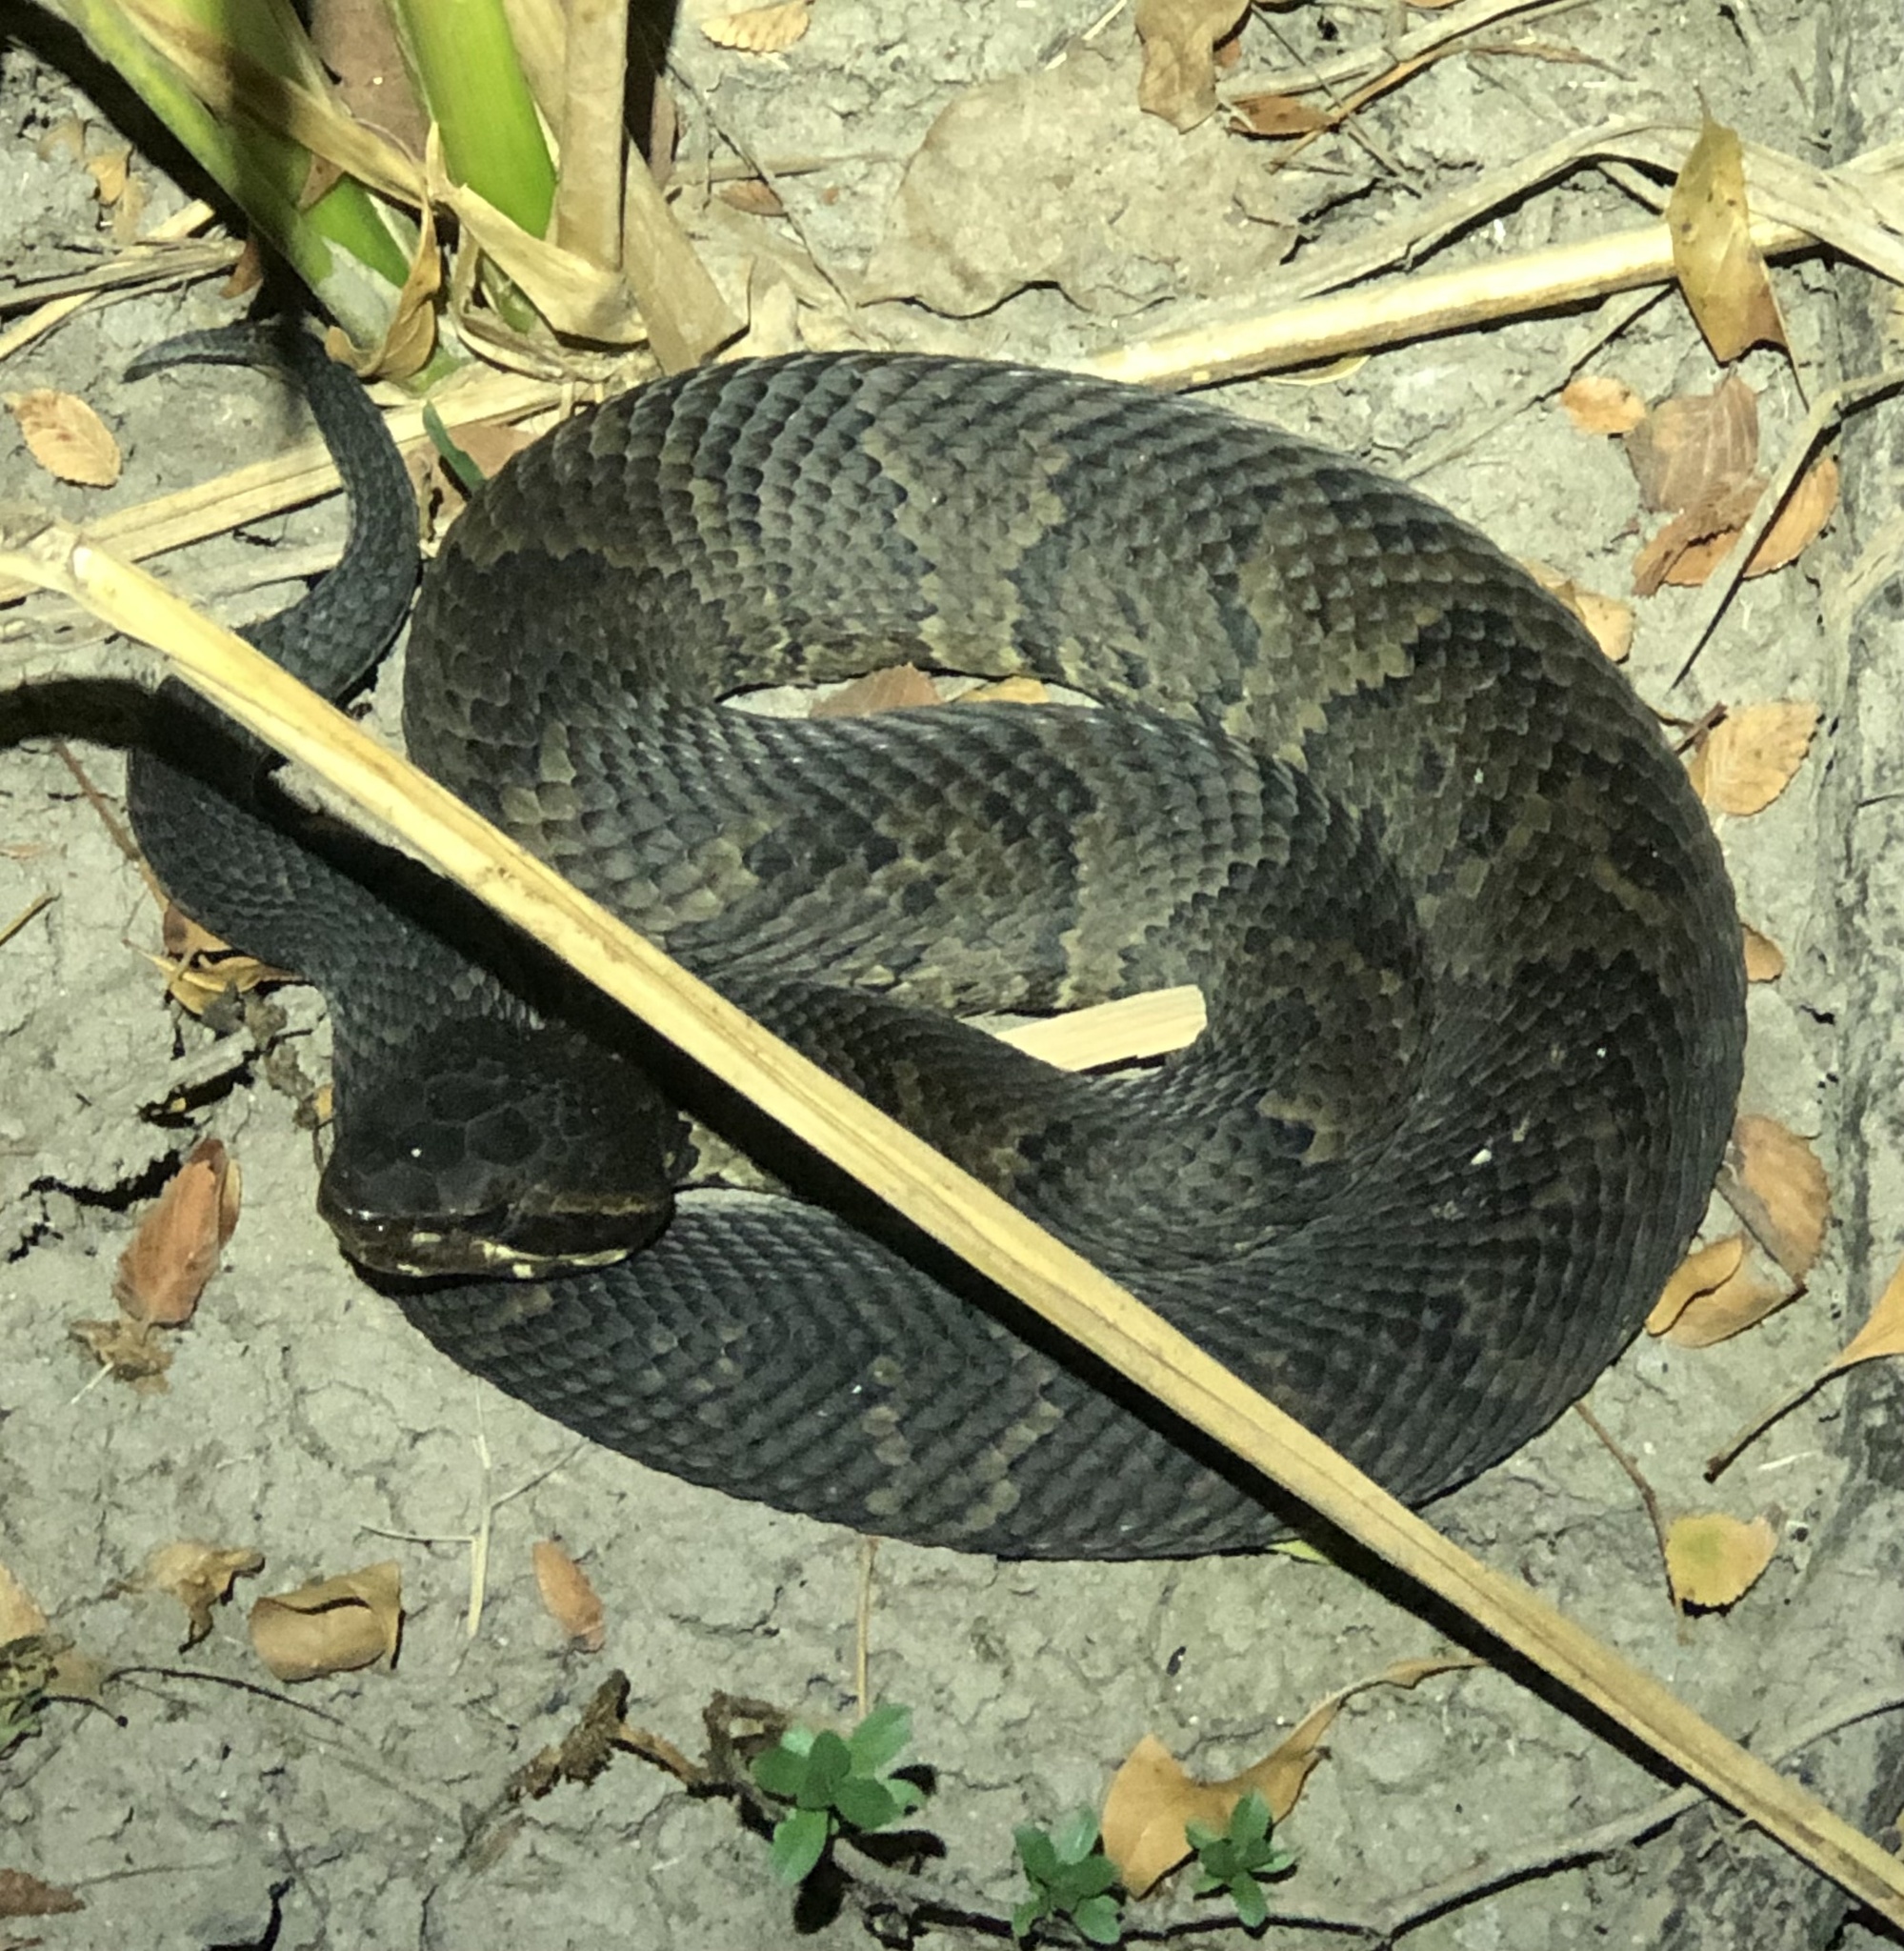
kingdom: Animalia
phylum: Chordata
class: Squamata
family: Viperidae
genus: Agkistrodon
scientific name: Agkistrodon piscivorus
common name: Cottonmouth
